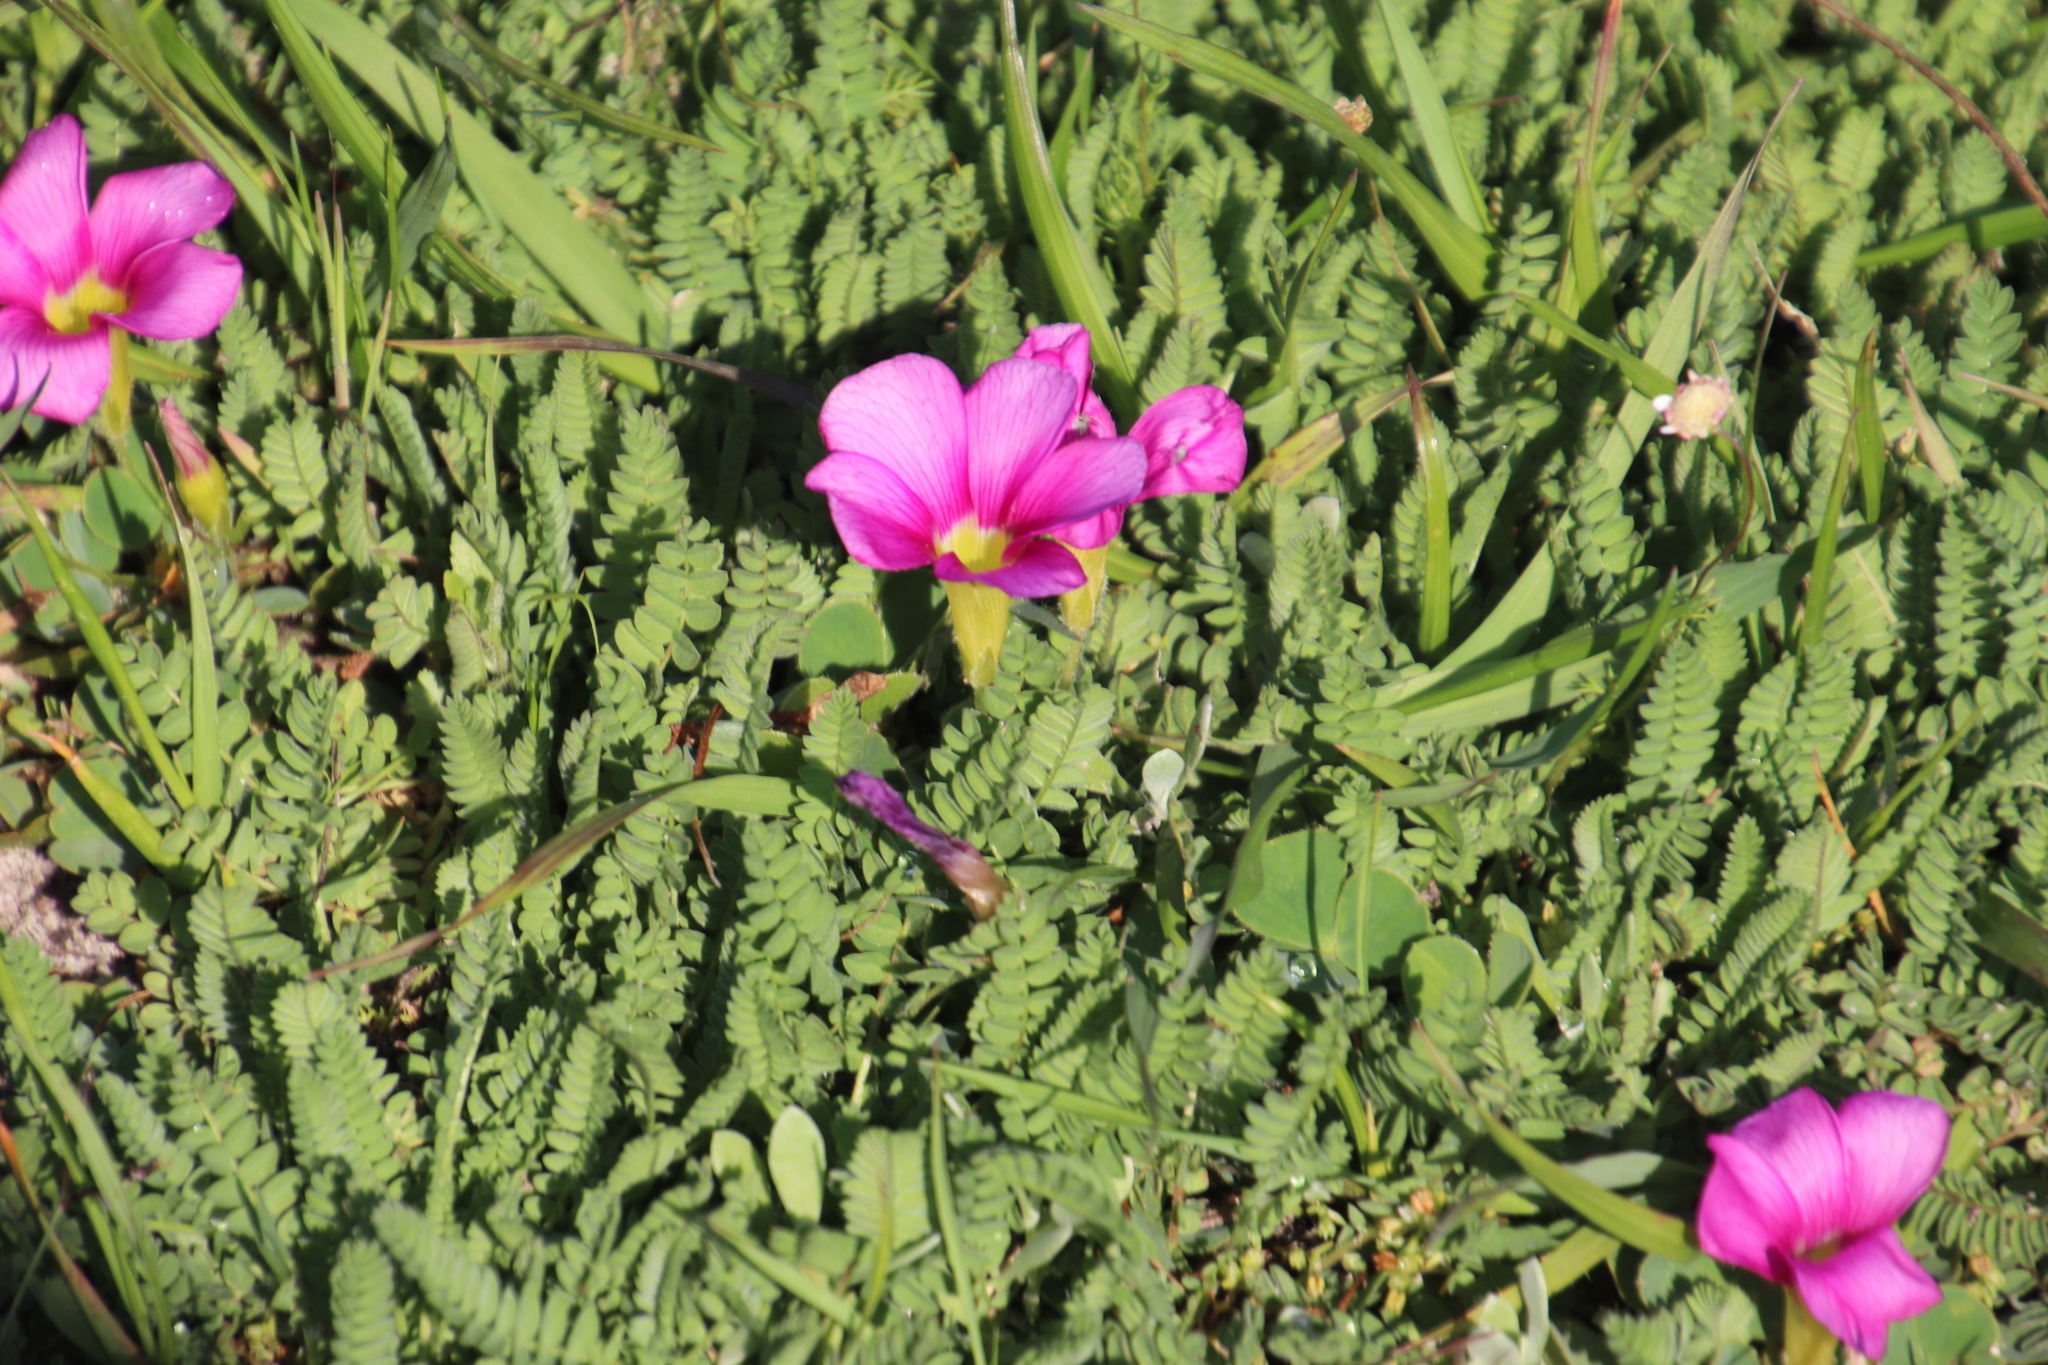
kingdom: Plantae
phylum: Tracheophyta
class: Magnoliopsida
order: Oxalidales
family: Oxalidaceae
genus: Oxalis
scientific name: Oxalis purpurea
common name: Purple woodsorrel
